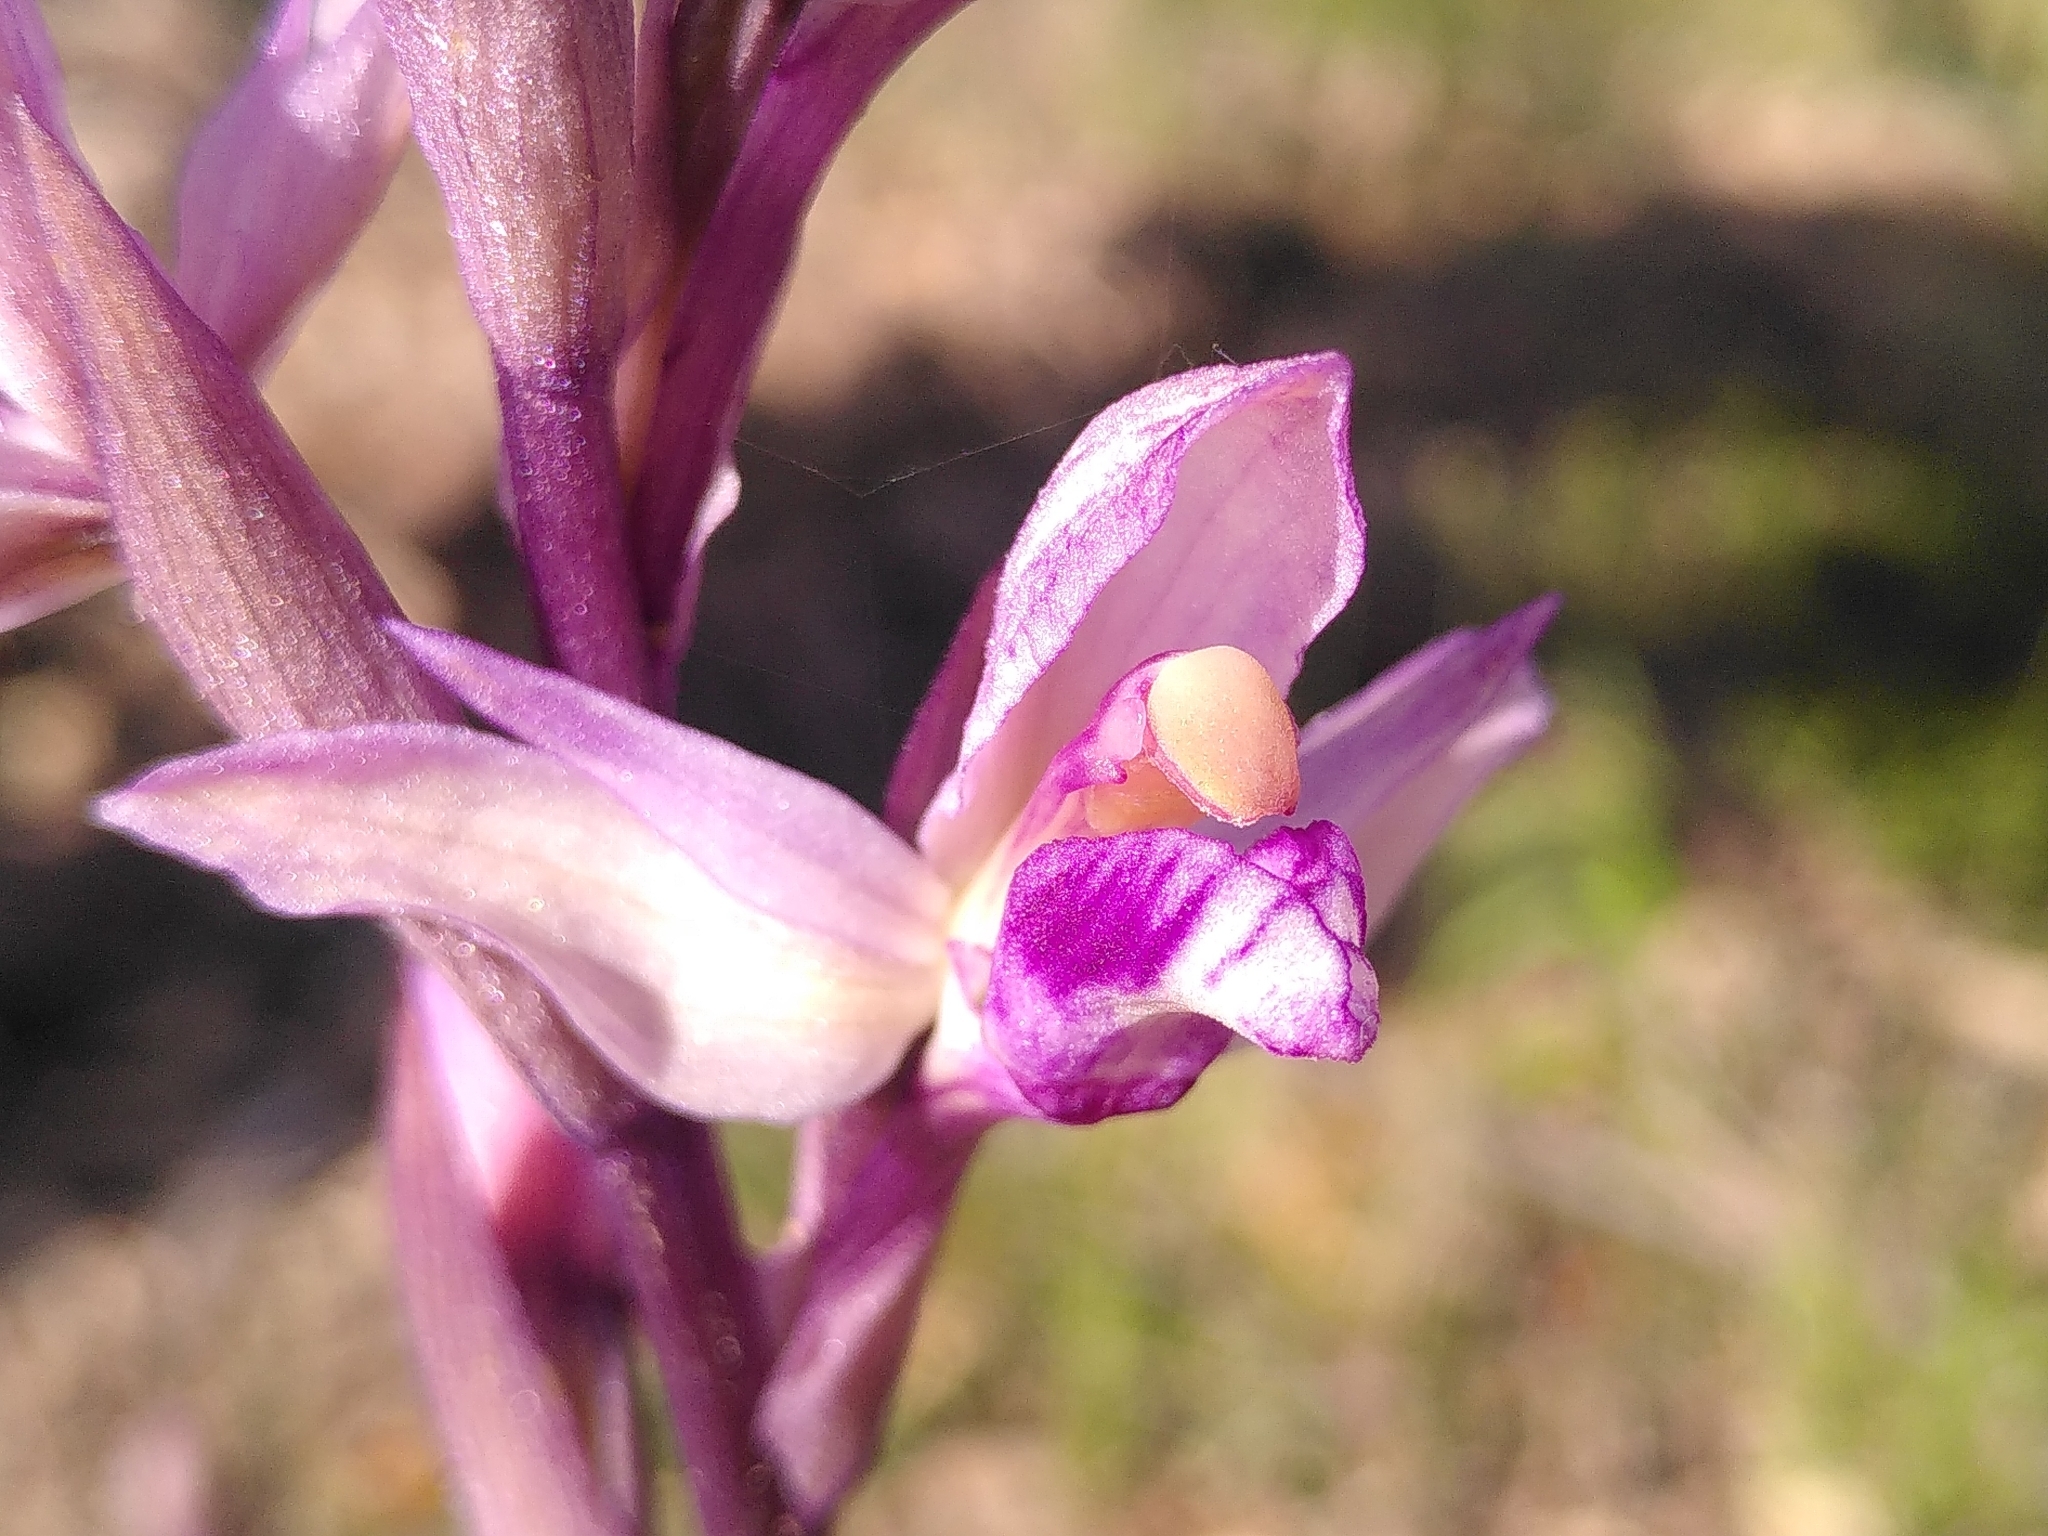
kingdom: Plantae
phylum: Tracheophyta
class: Liliopsida
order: Asparagales
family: Orchidaceae
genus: Limodorum
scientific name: Limodorum abortivum
